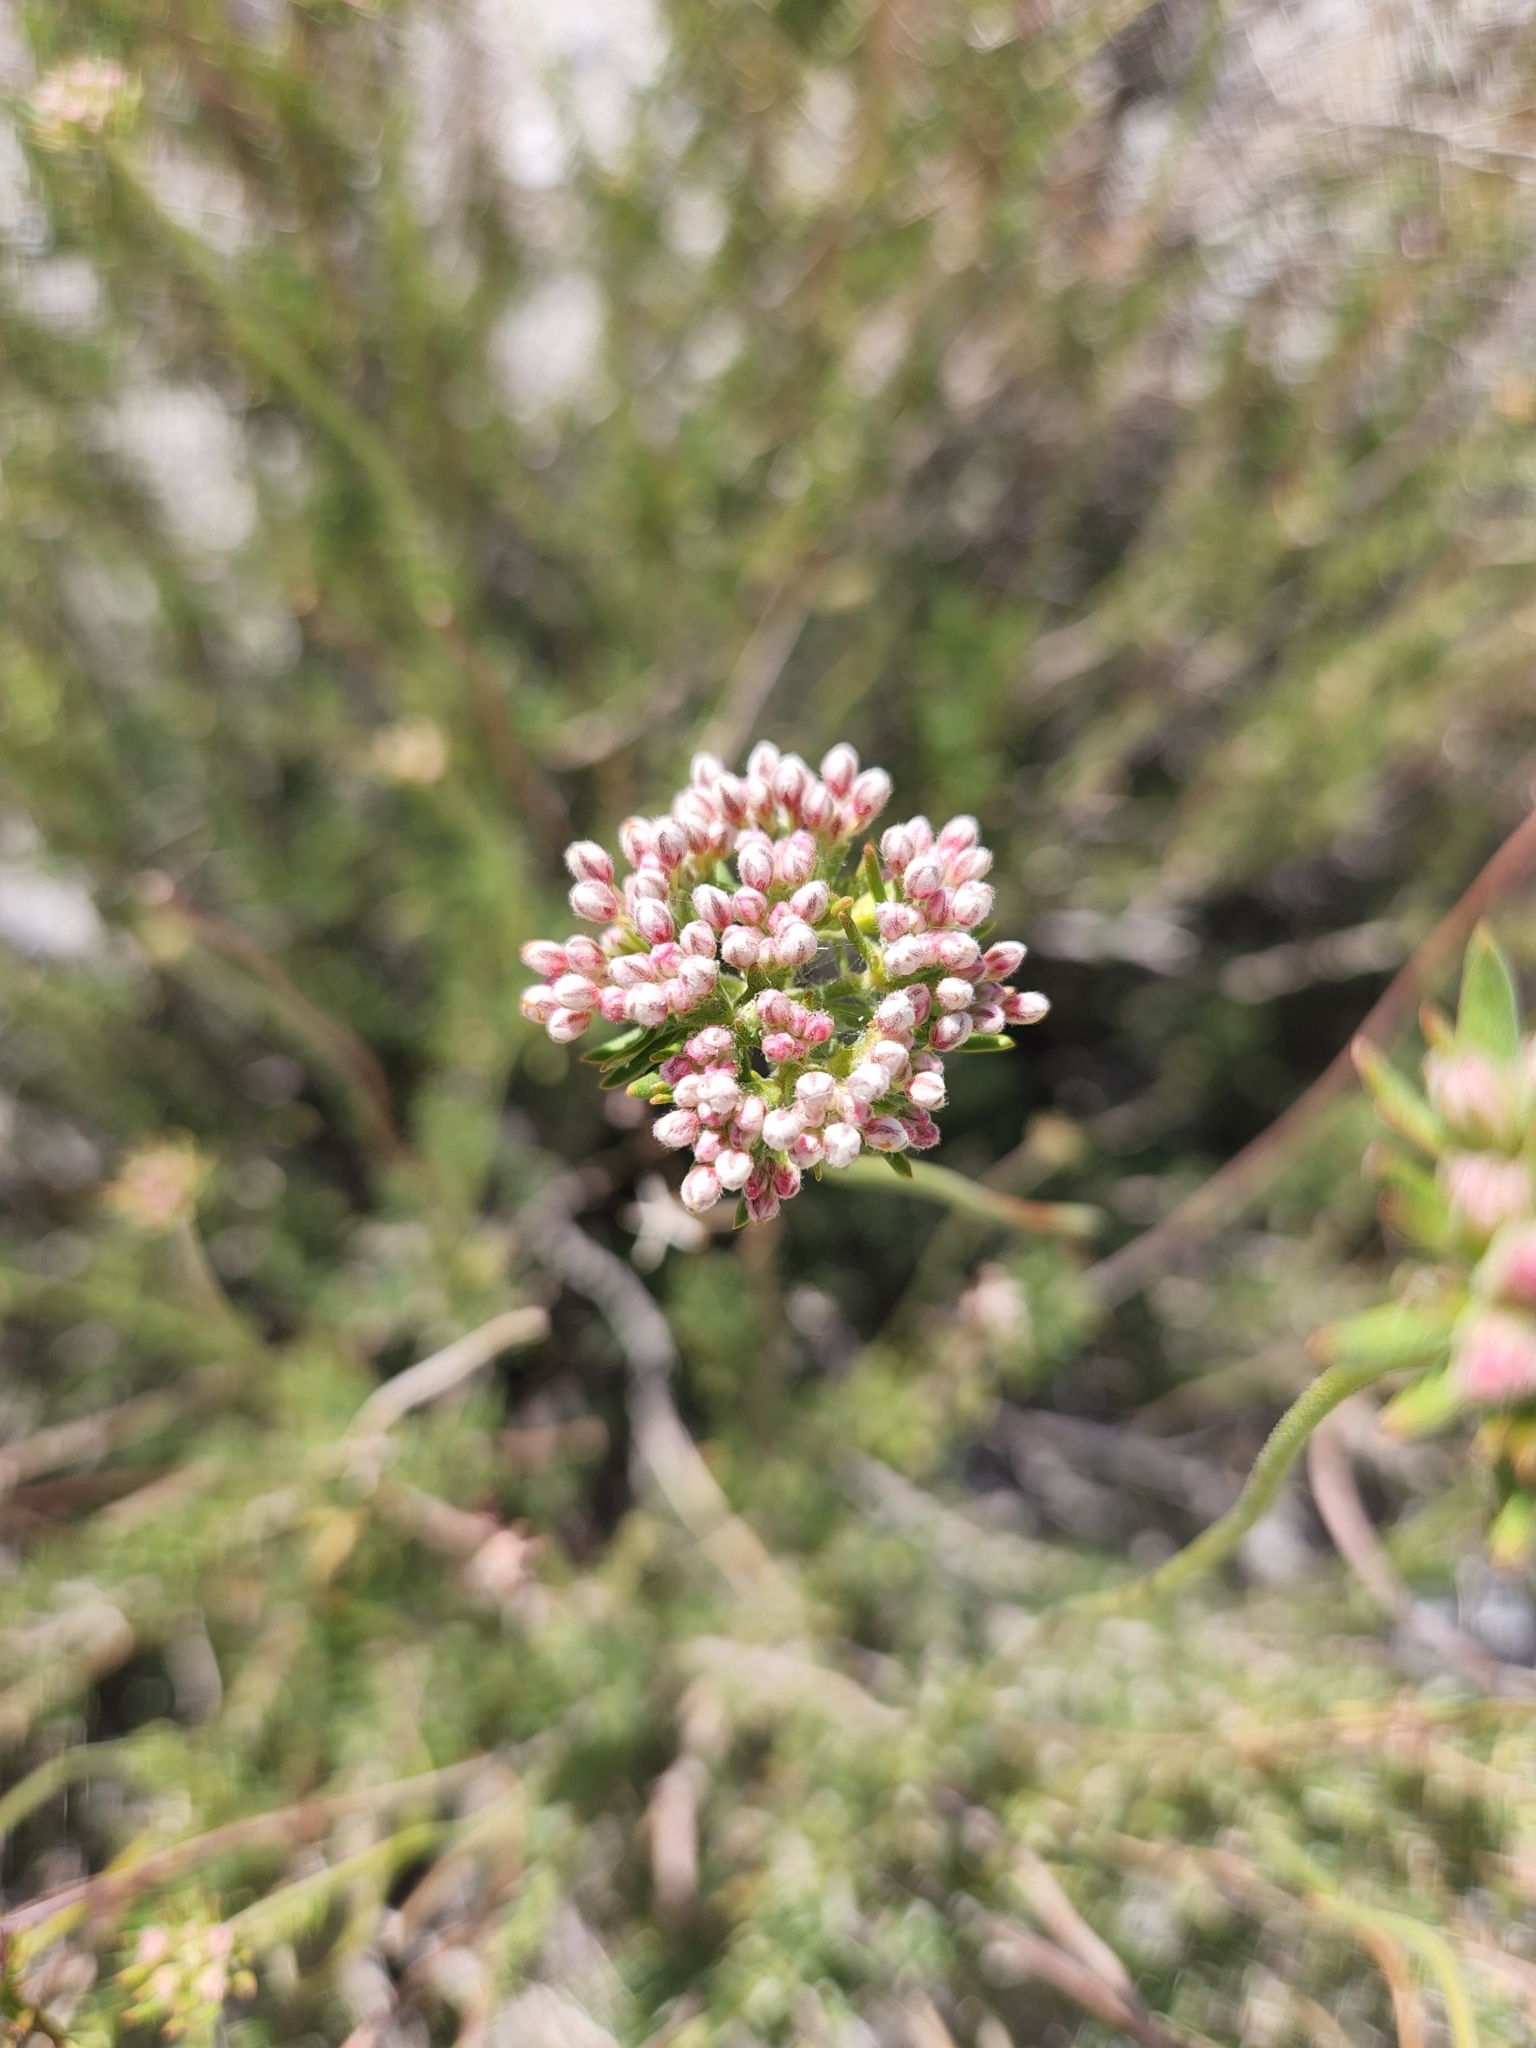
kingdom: Plantae
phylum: Tracheophyta
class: Magnoliopsida
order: Caryophyllales
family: Polygonaceae
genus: Eriogonum
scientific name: Eriogonum fasciculatum
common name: California wild buckwheat
